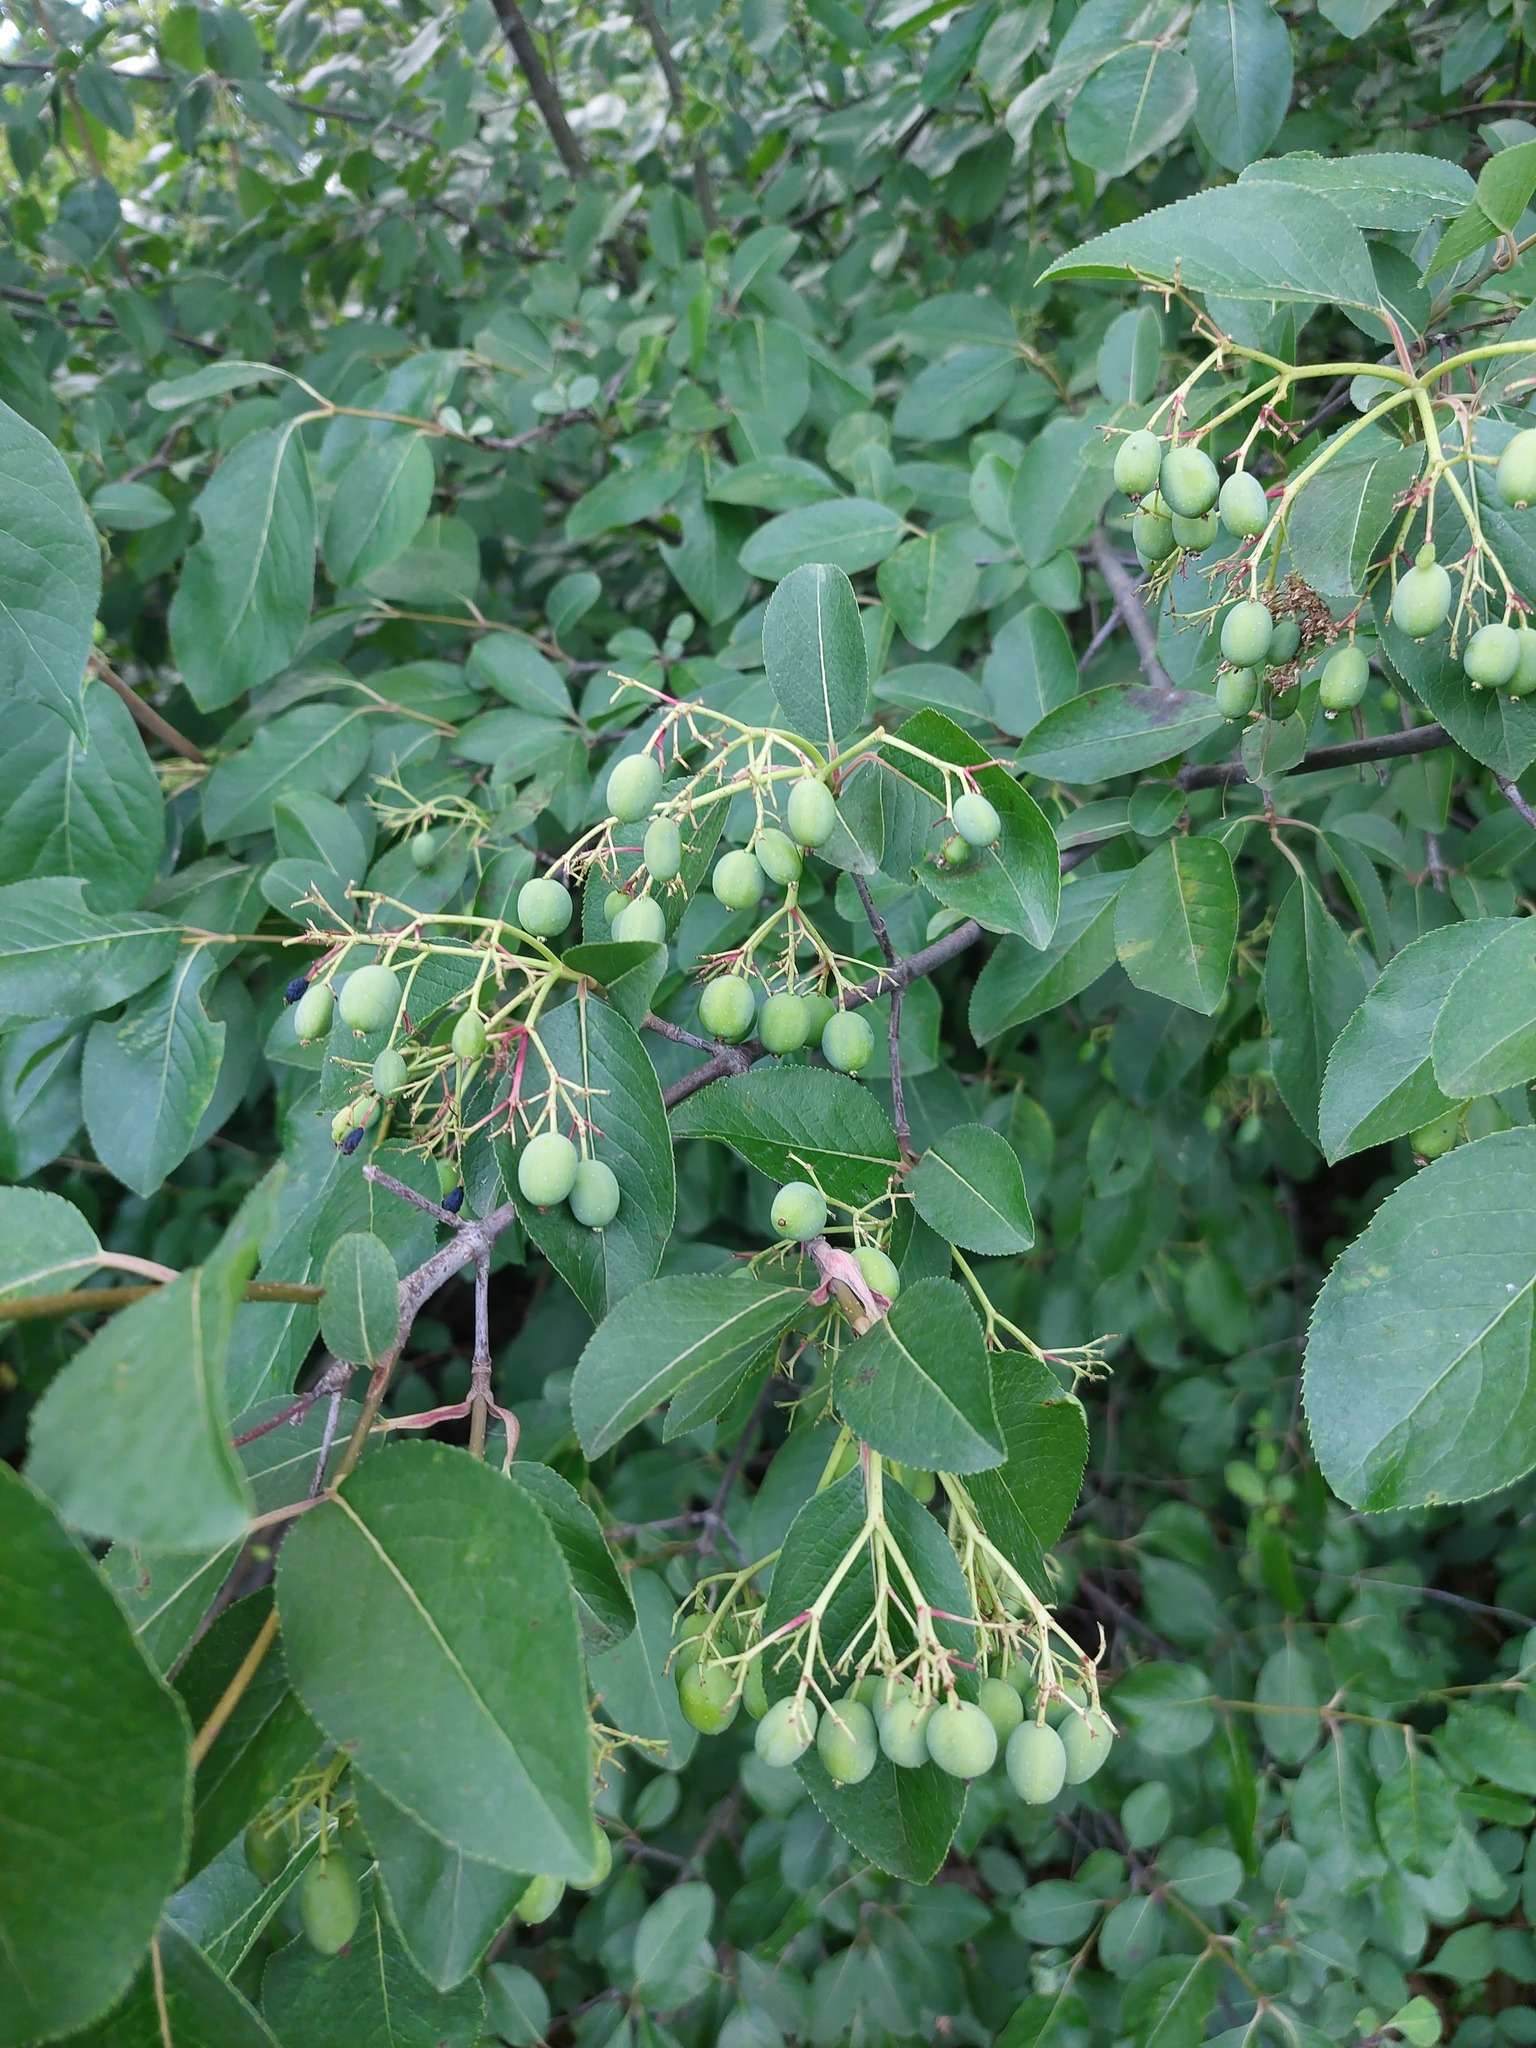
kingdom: Plantae
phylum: Tracheophyta
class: Magnoliopsida
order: Dipsacales
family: Viburnaceae
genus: Viburnum
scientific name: Viburnum prunifolium
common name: Black haw
